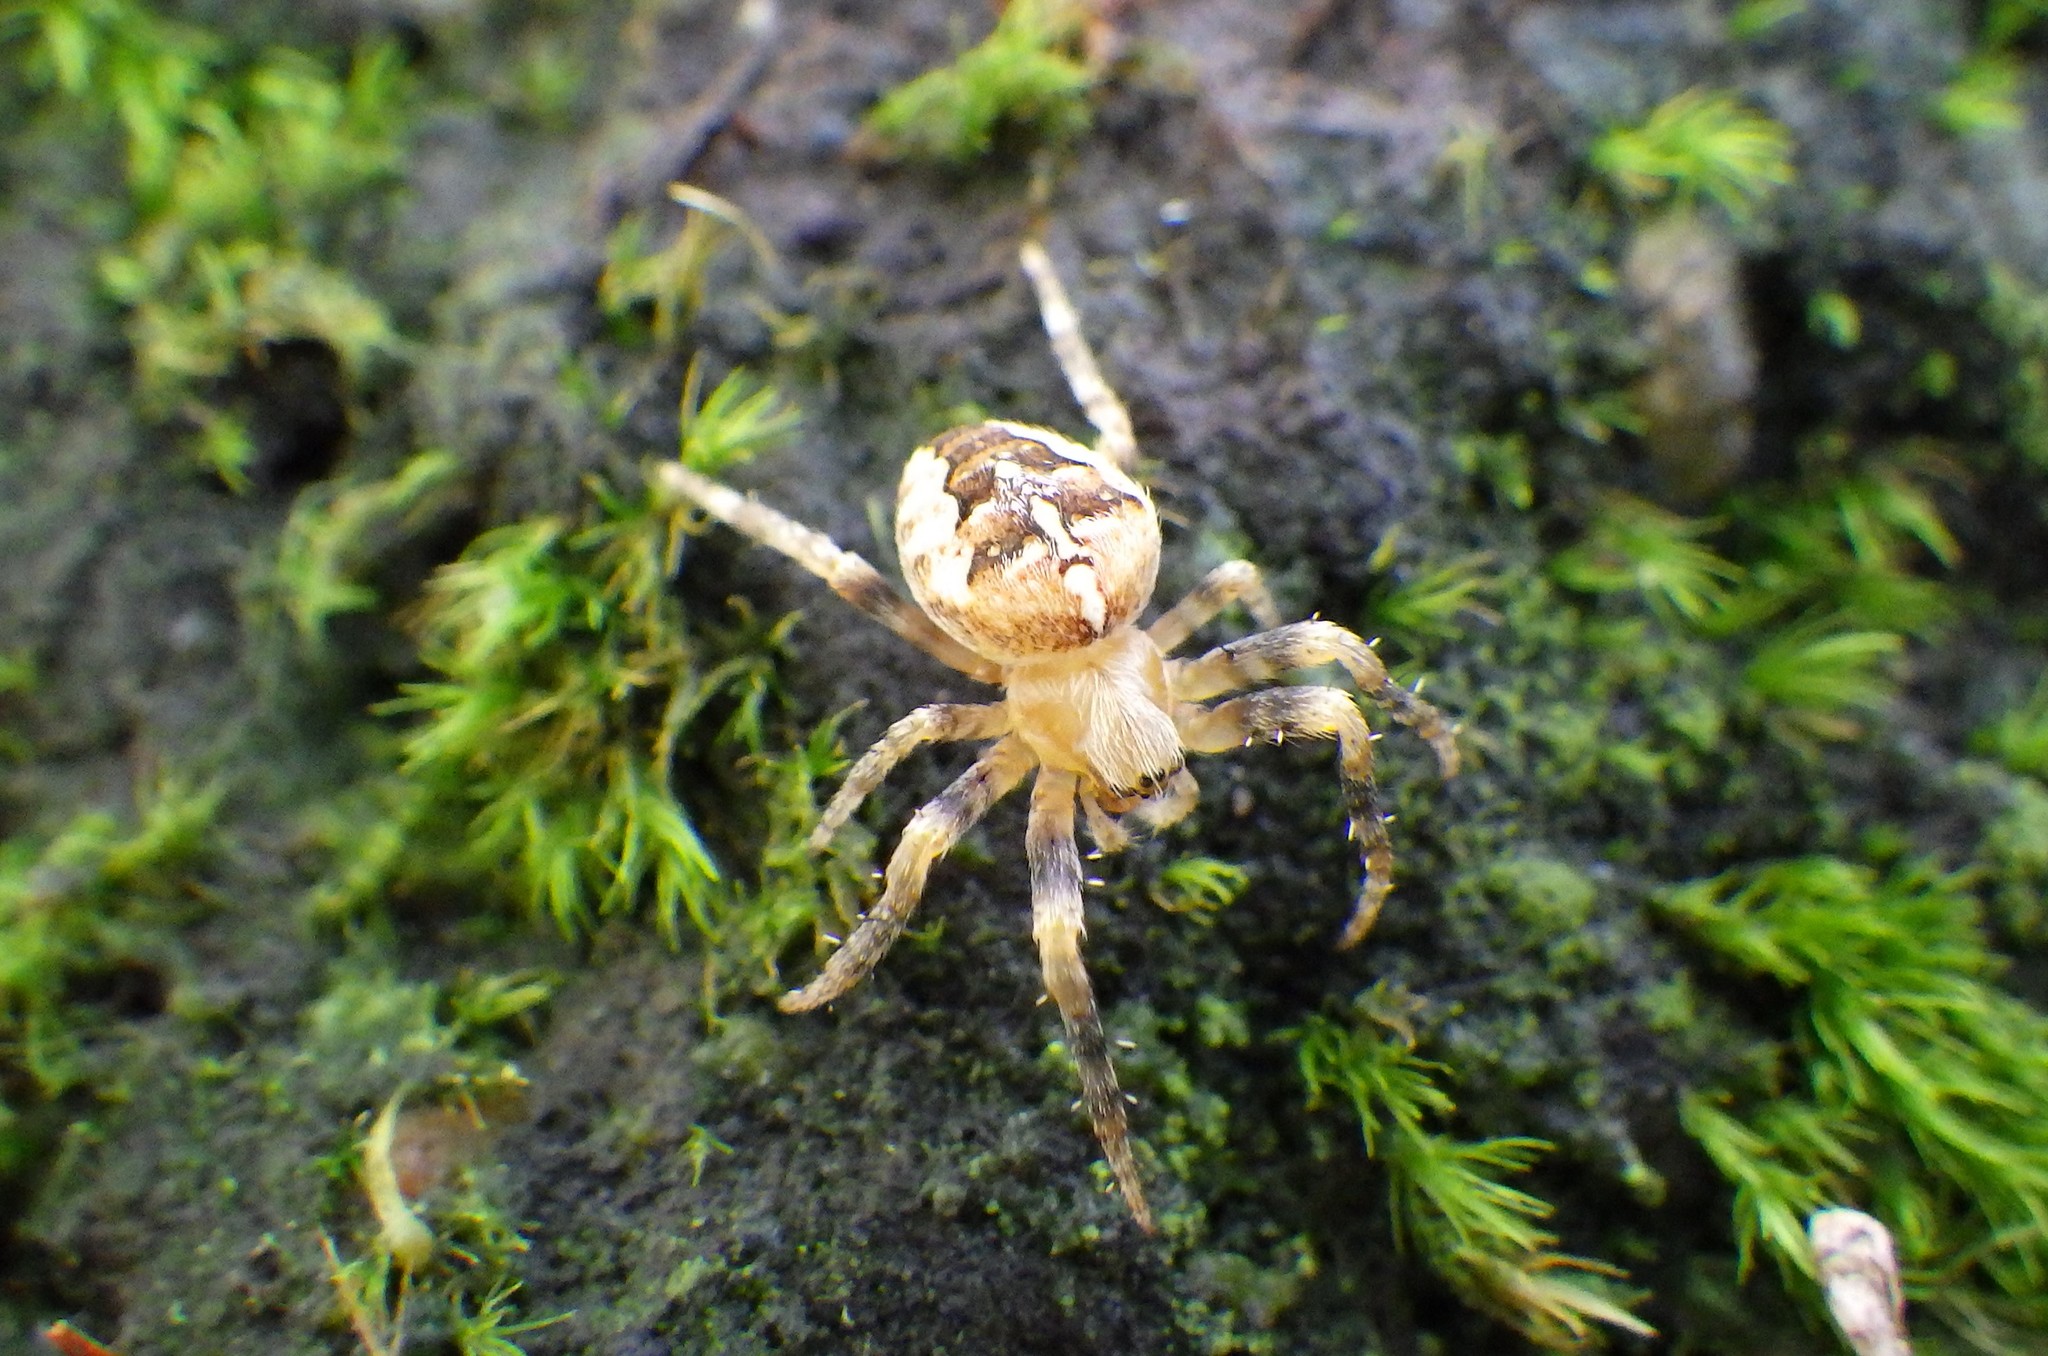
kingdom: Animalia
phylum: Arthropoda
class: Arachnida
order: Araneae
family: Araneidae
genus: Araneus
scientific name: Araneus diadematus
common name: Cross orbweaver
